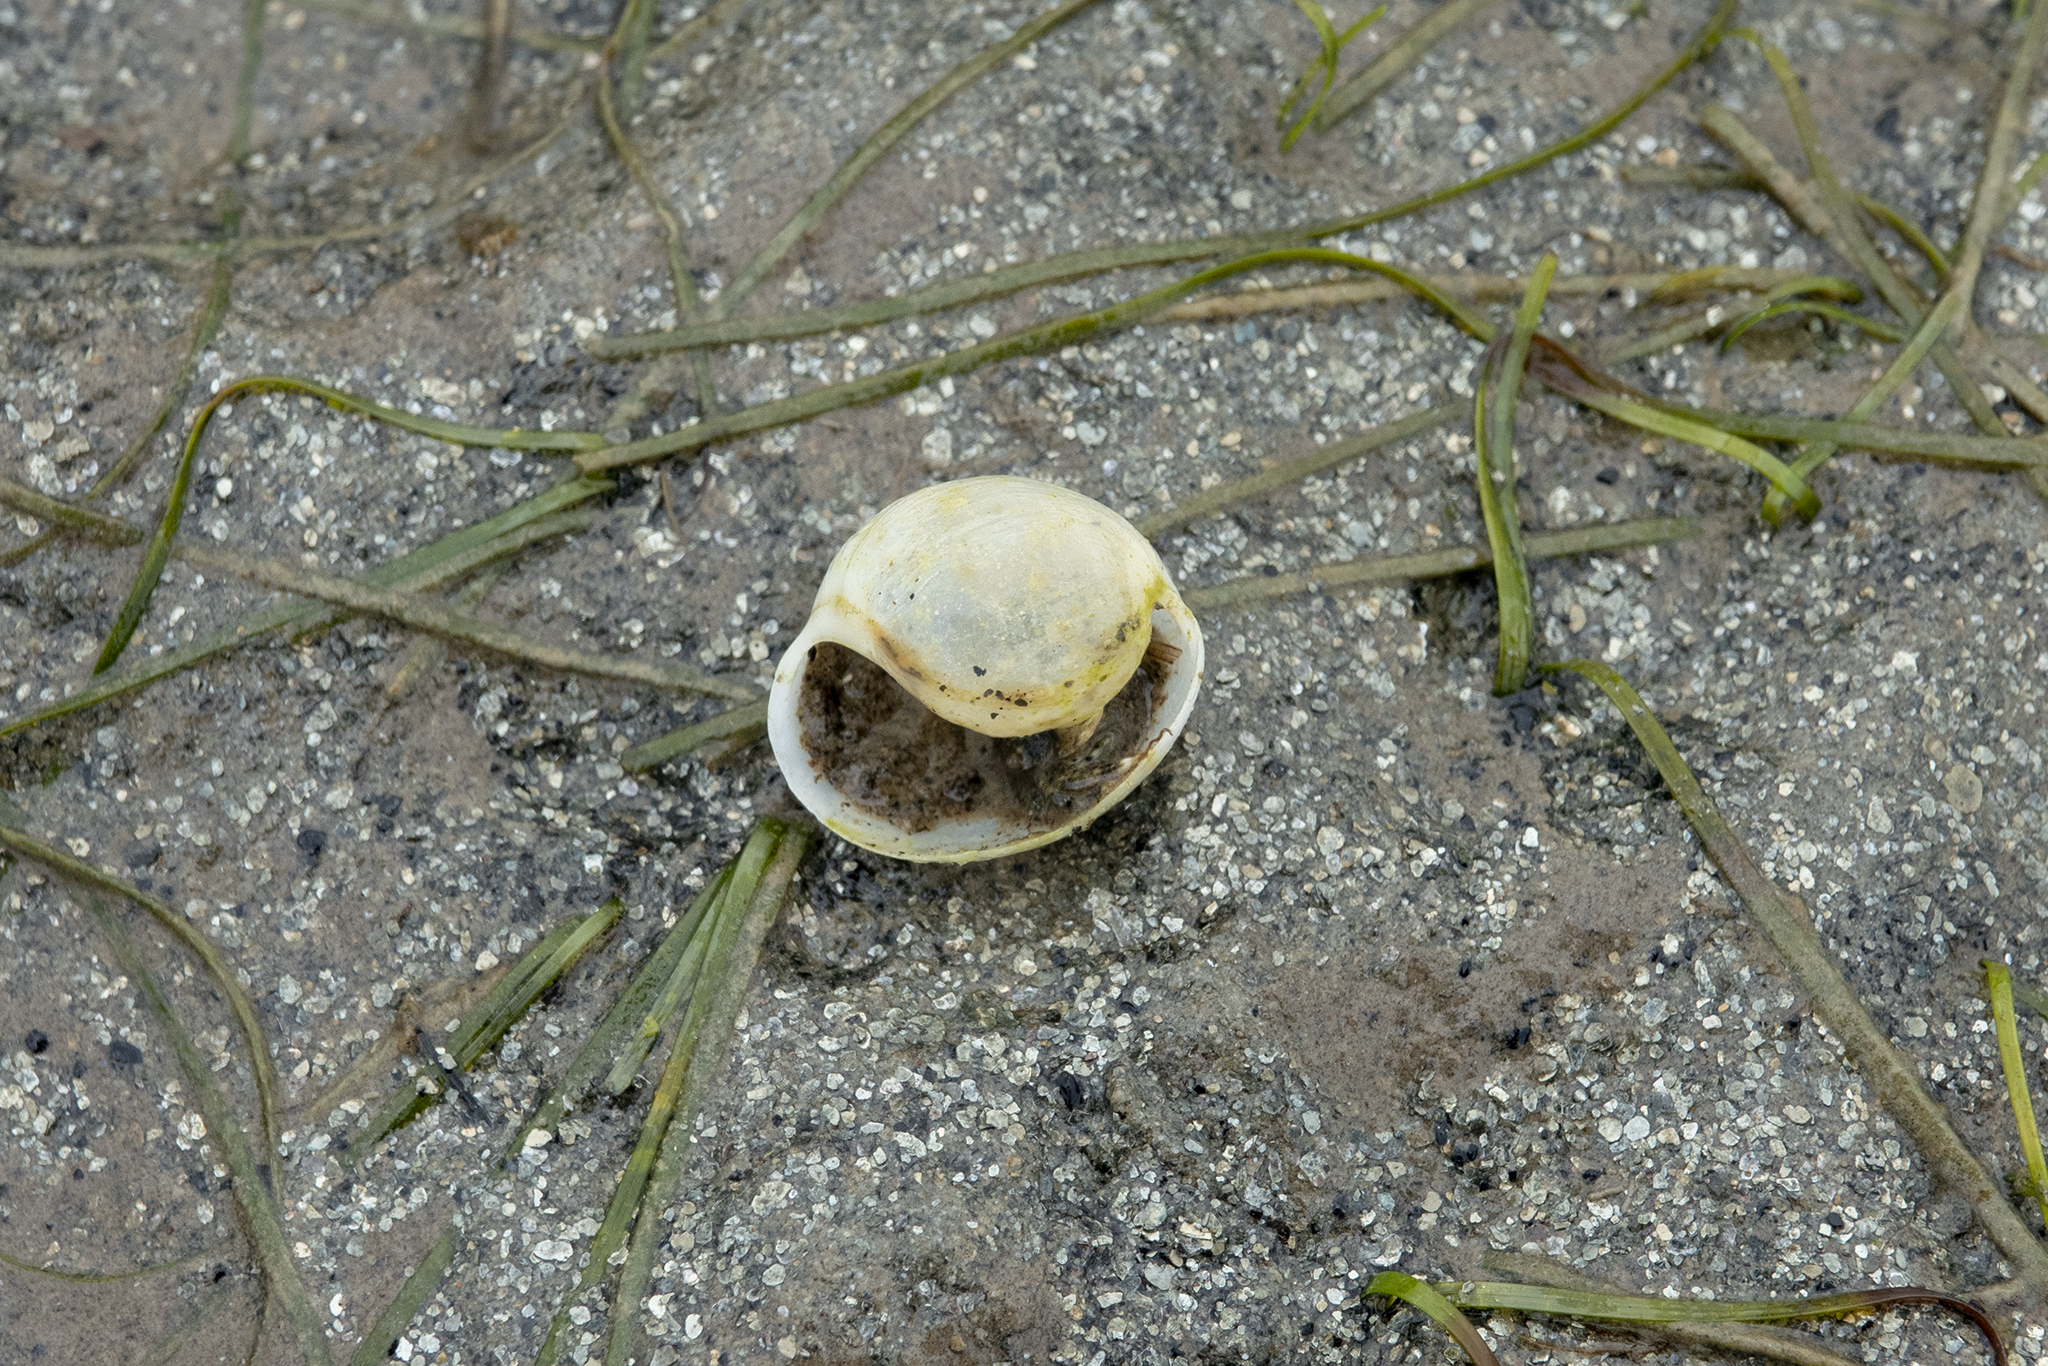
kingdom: Animalia
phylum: Mollusca
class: Gastropoda
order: Cephalaspidea
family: Haminoeidae
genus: Papawera
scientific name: Papawera zelandiae
